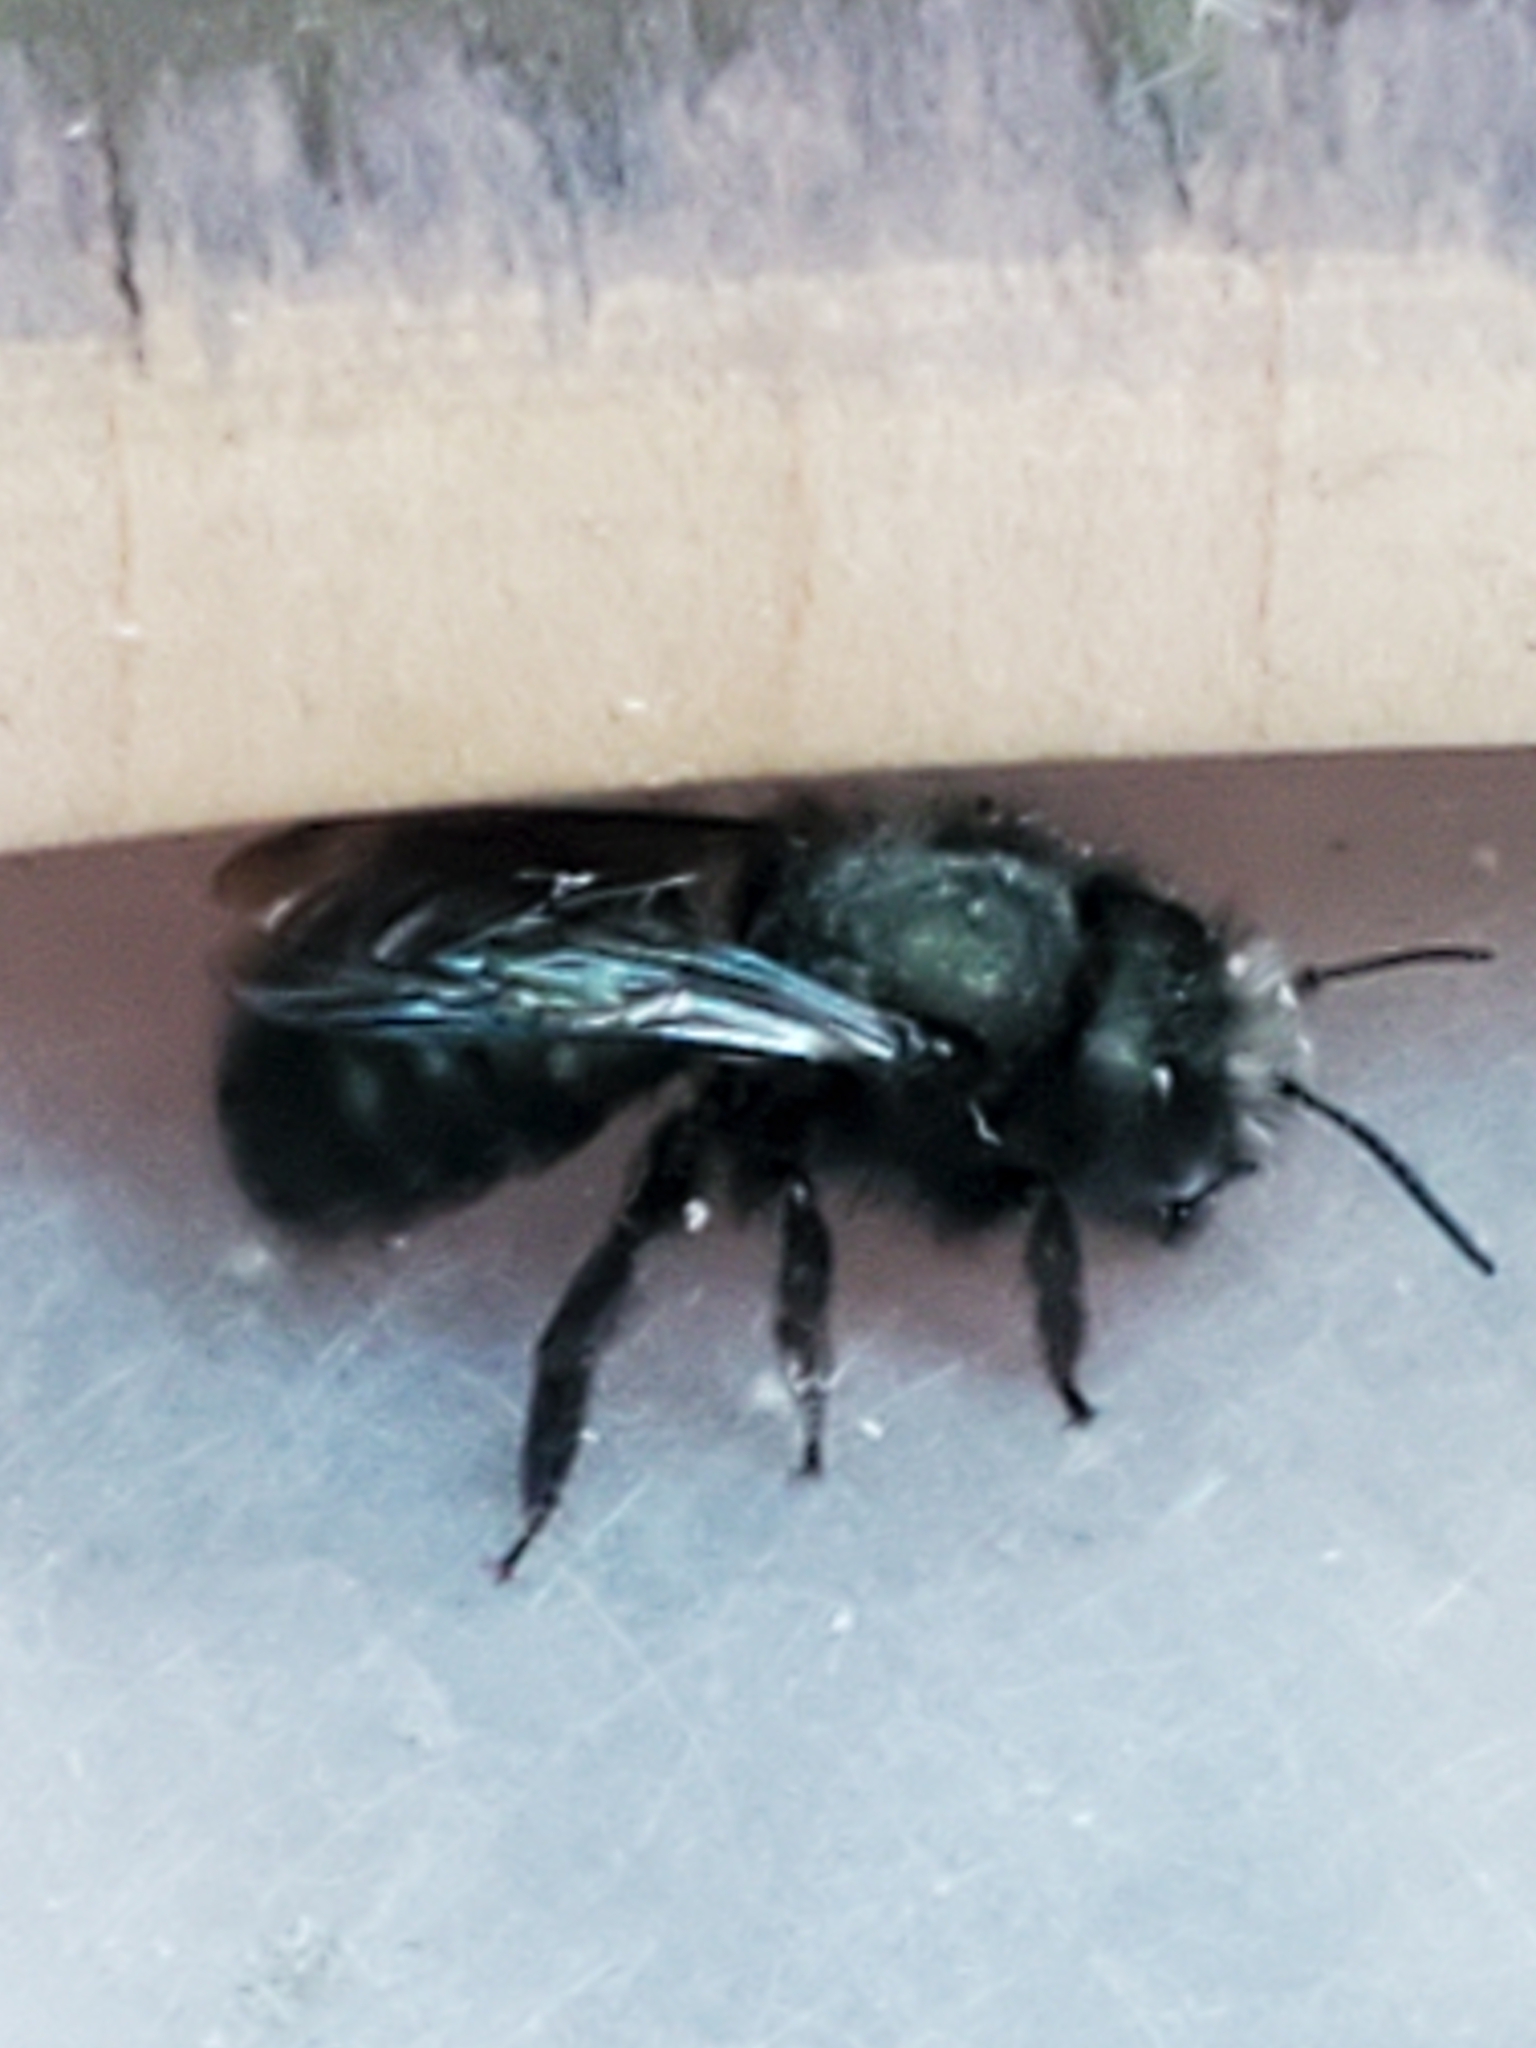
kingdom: Animalia
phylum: Arthropoda
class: Insecta
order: Hymenoptera
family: Megachilidae
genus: Osmia
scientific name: Osmia lignaria
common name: Blue orchard bee
